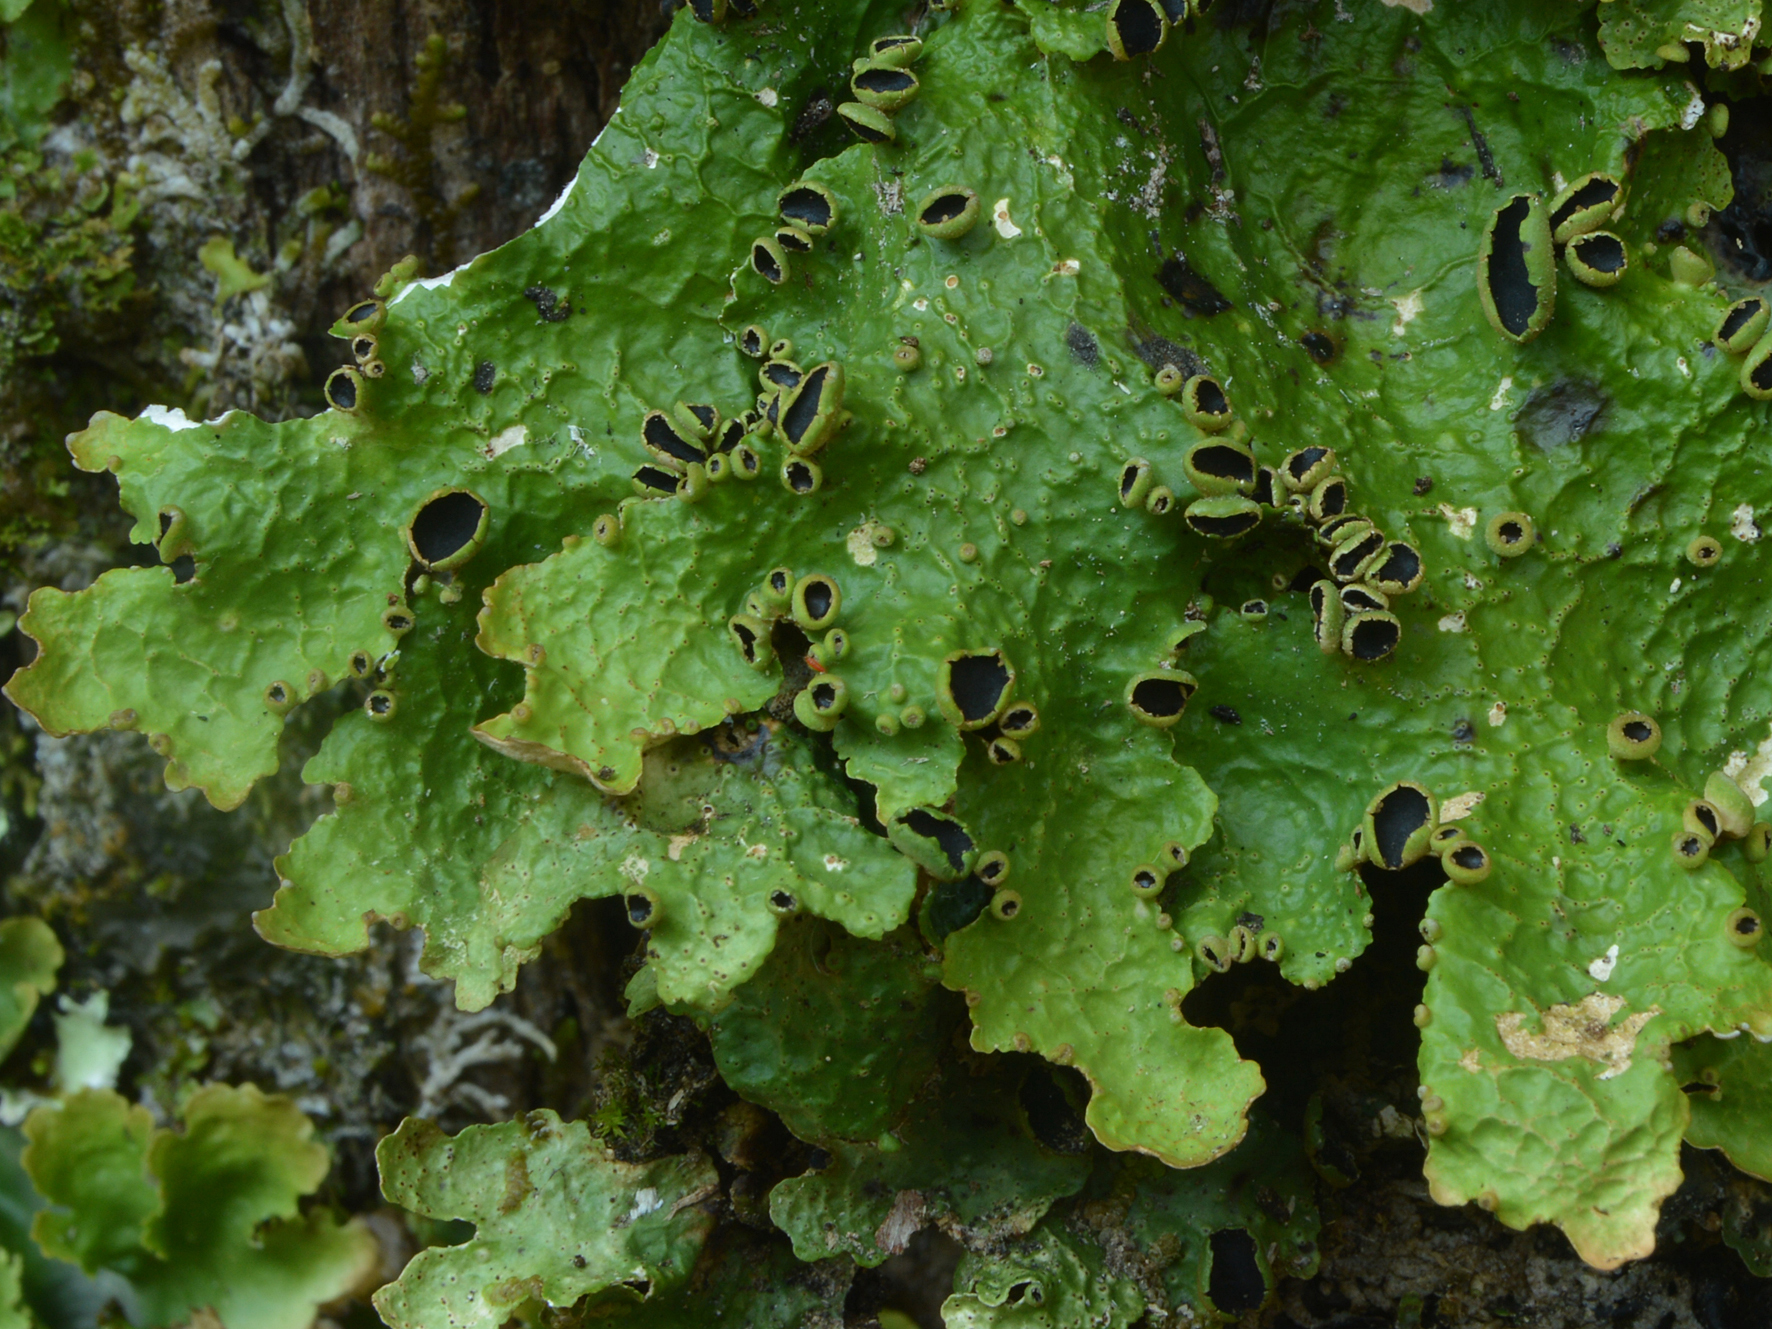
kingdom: Fungi
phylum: Ascomycota
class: Lecanoromycetes
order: Peltigerales
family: Lobariaceae
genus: Pseudocyphellaria
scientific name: Pseudocyphellaria montagnei
